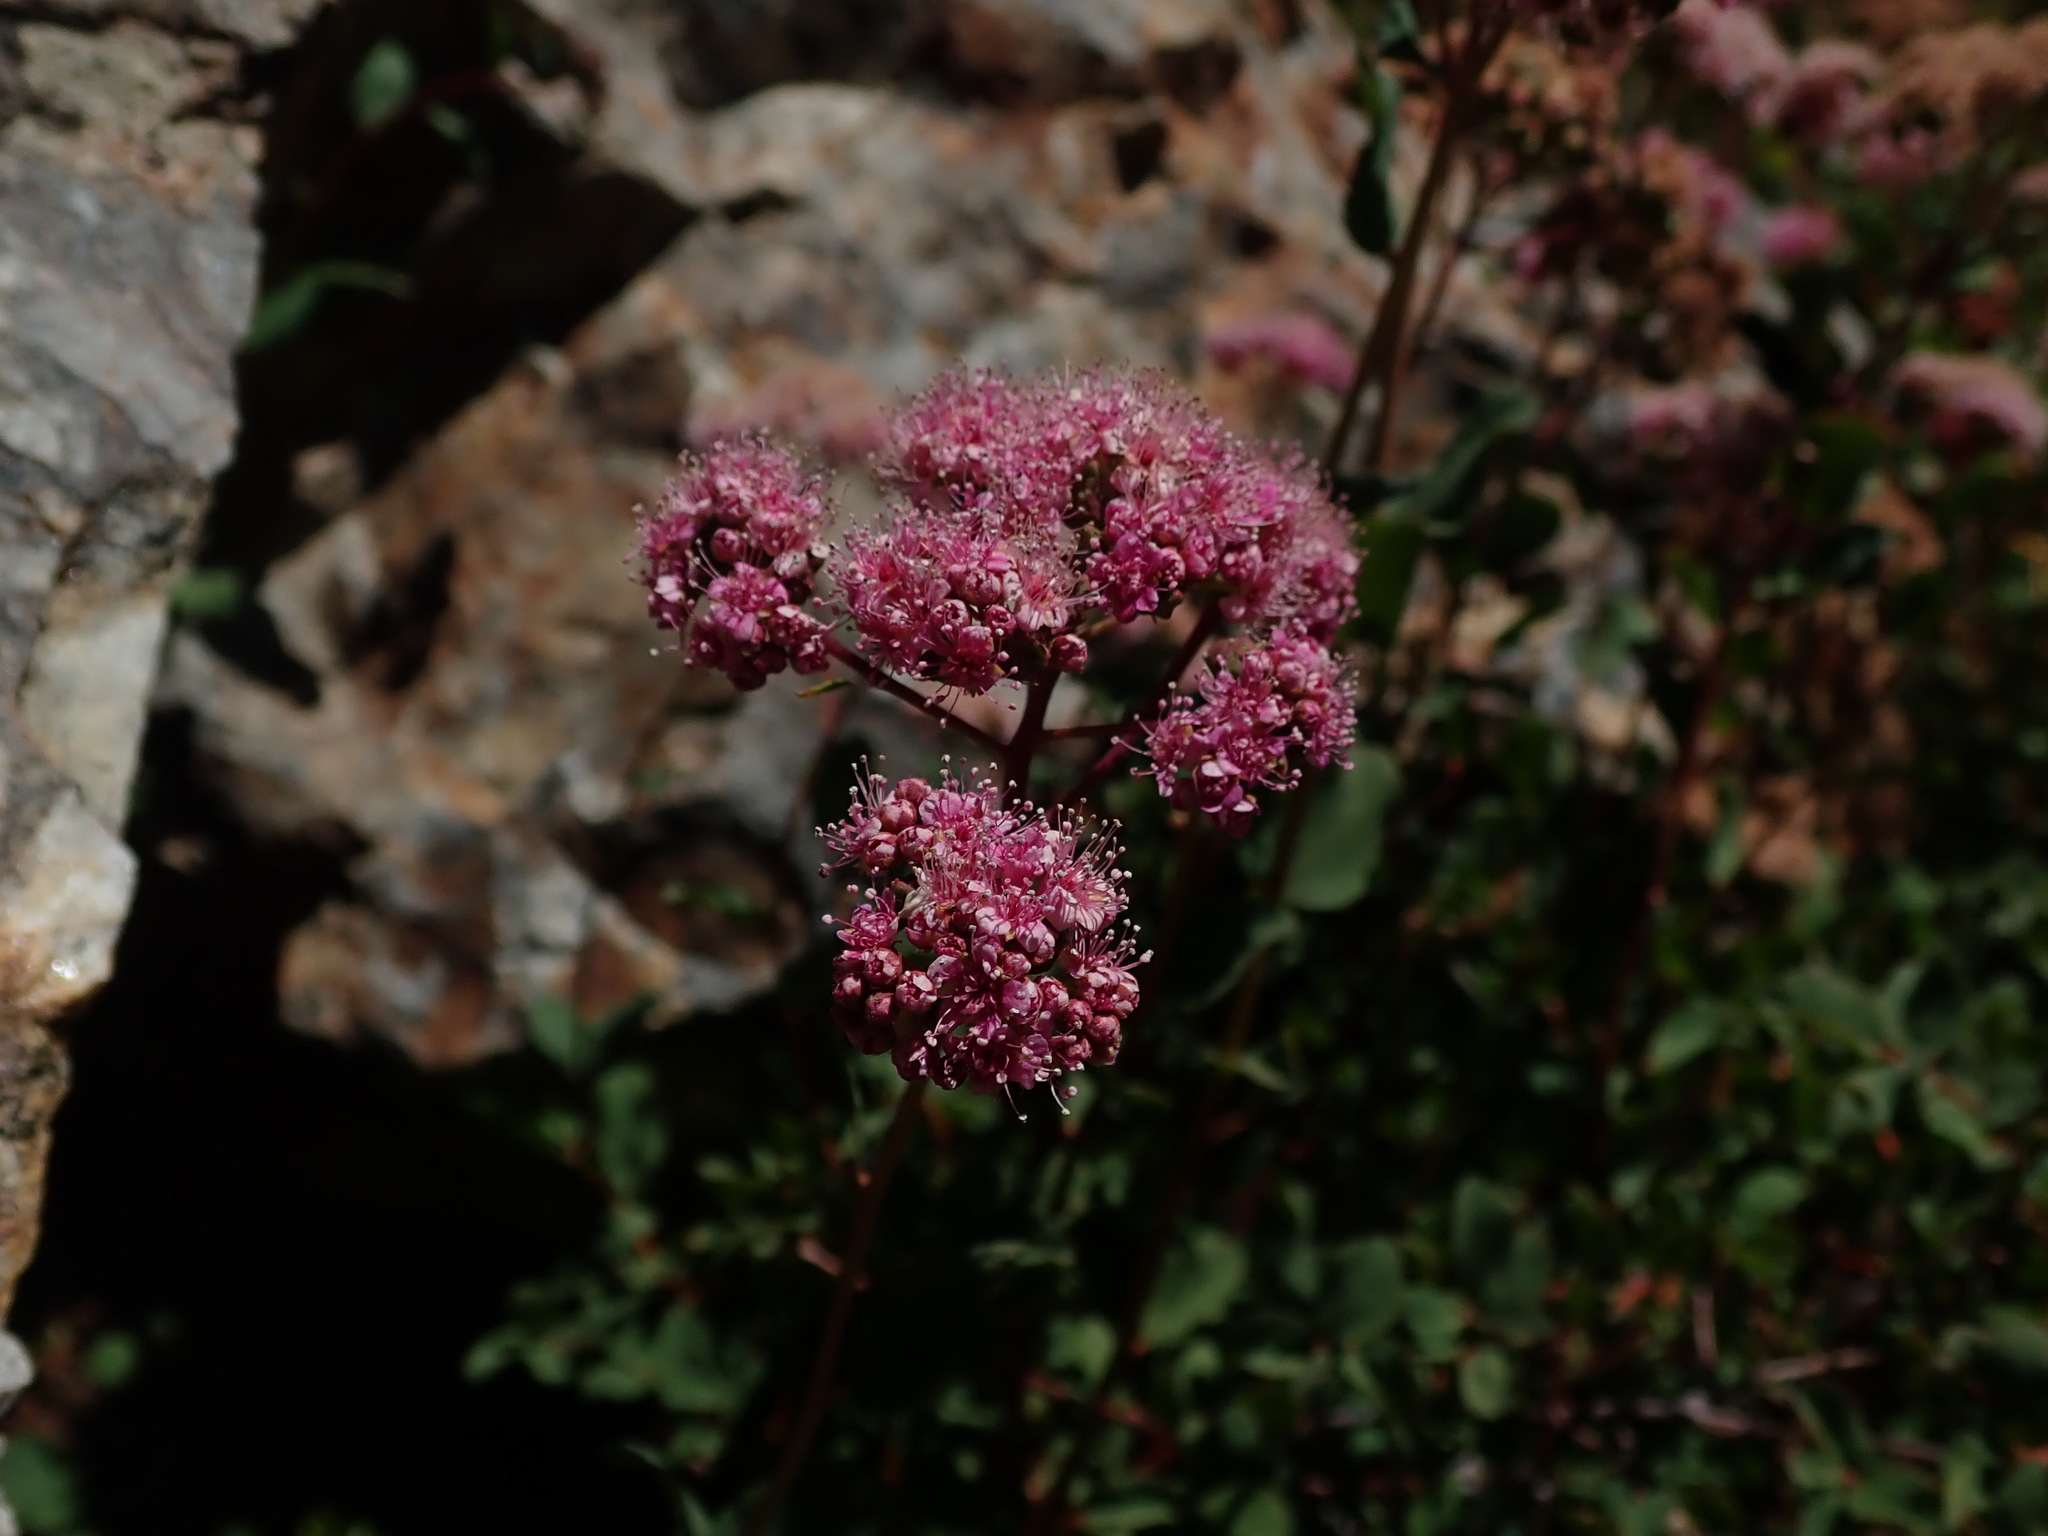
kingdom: Plantae
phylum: Tracheophyta
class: Magnoliopsida
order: Rosales
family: Rosaceae
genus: Spiraea
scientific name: Spiraea splendens
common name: Subalpine meadowsweet
